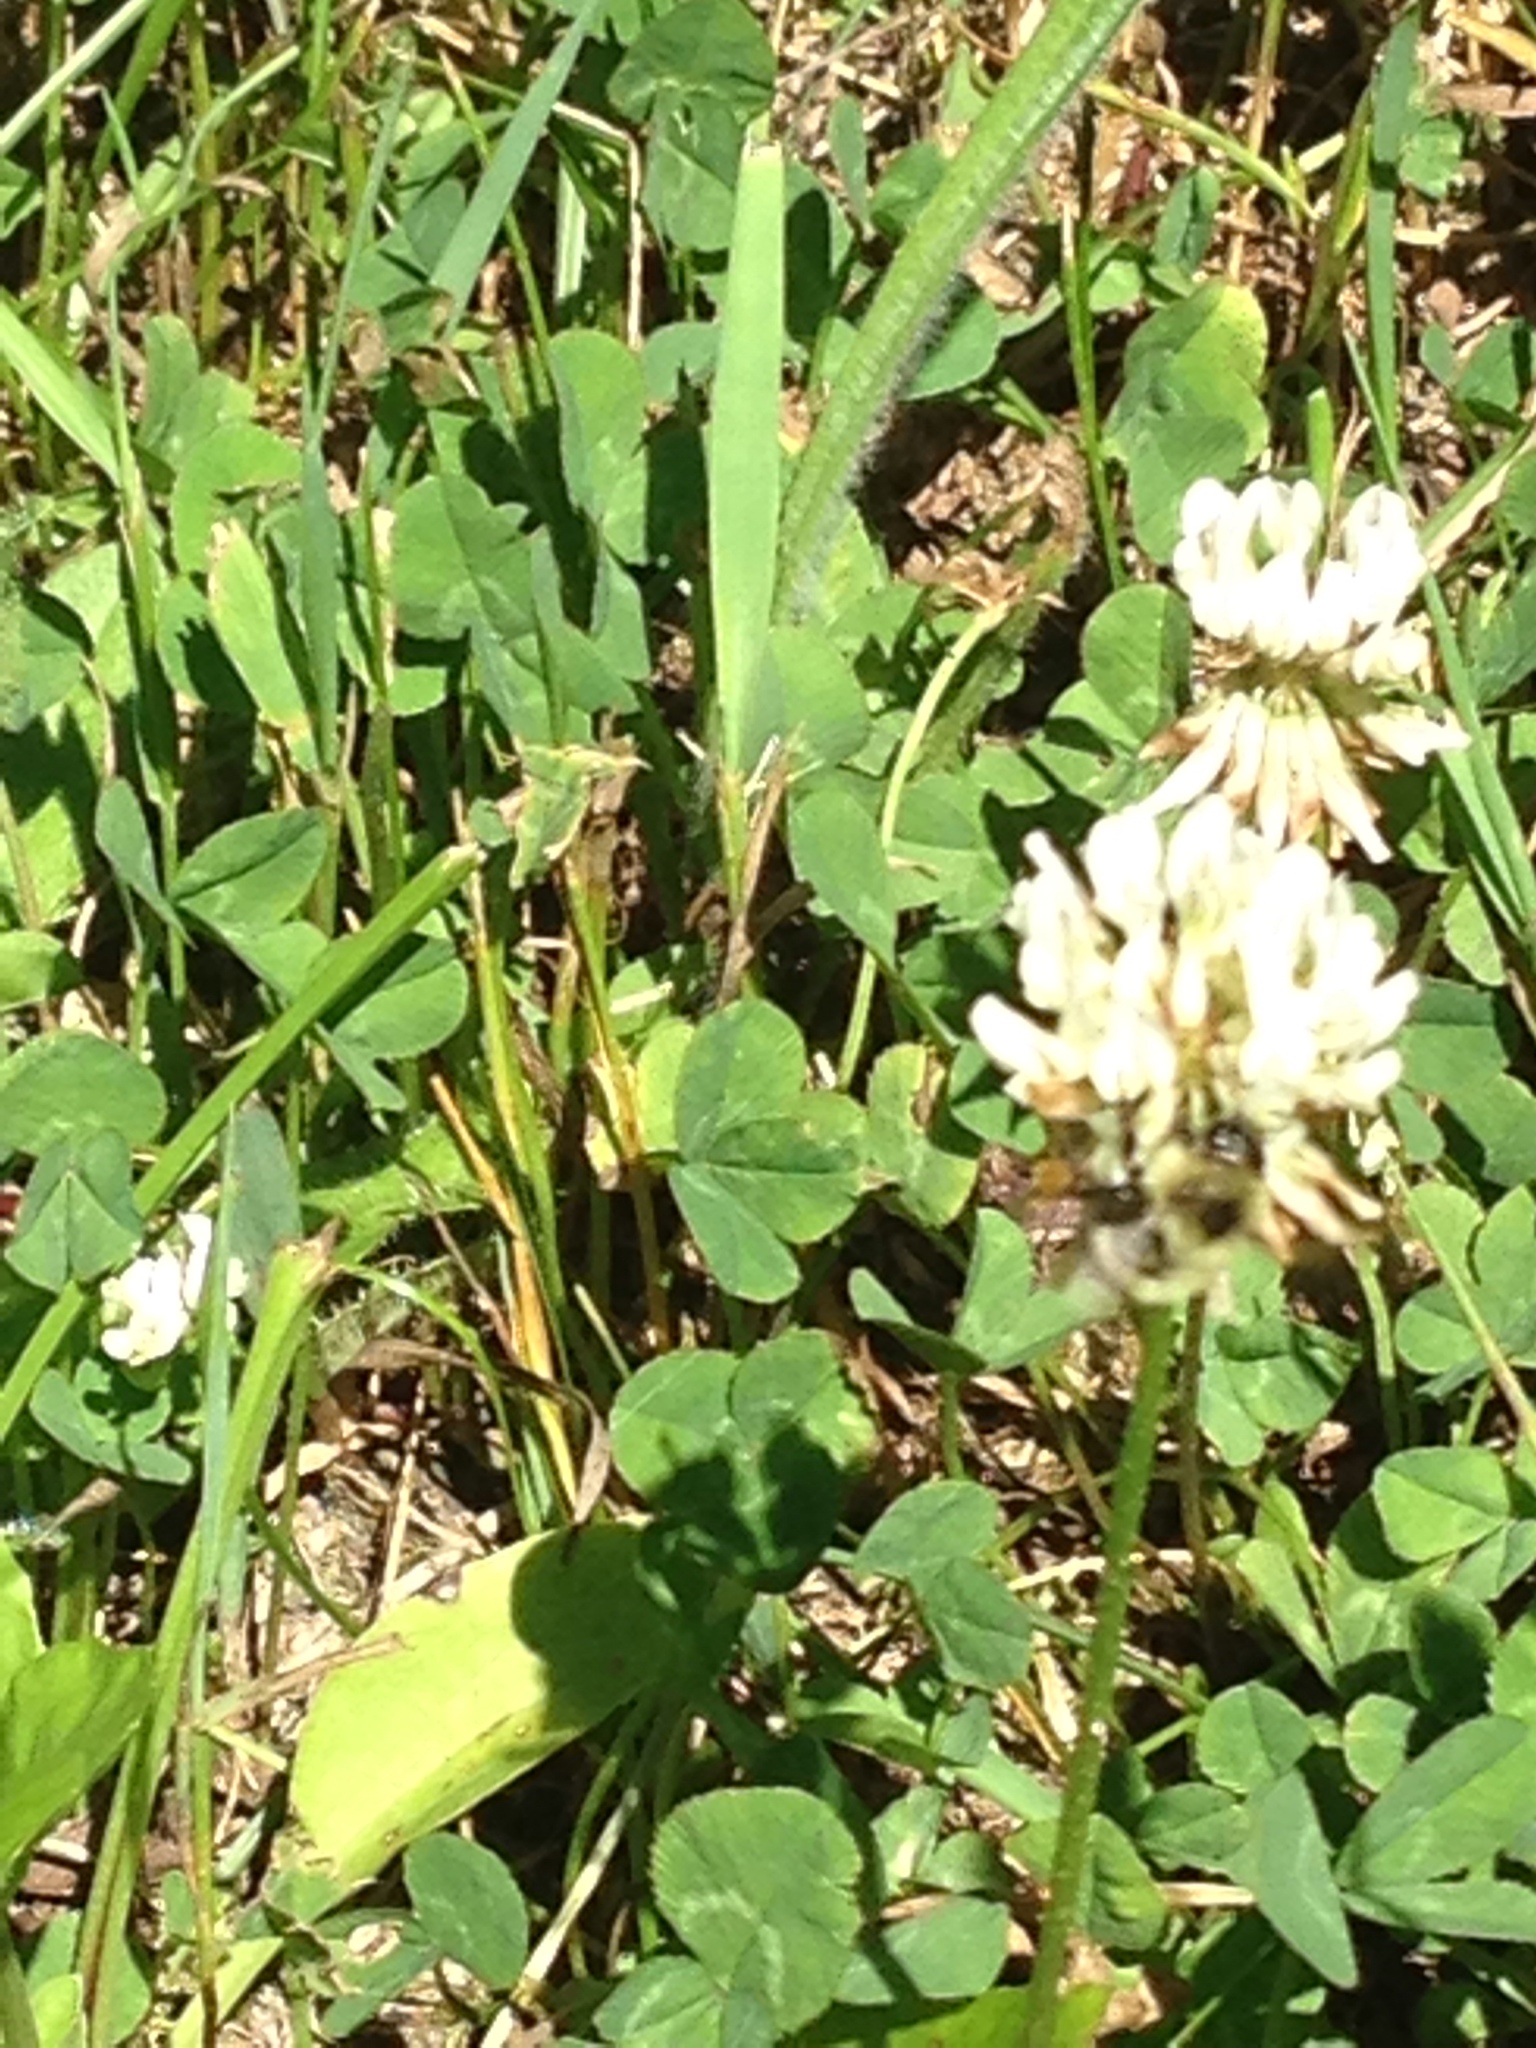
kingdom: Animalia
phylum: Arthropoda
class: Insecta
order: Hymenoptera
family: Apidae
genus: Pyrobombus
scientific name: Pyrobombus
